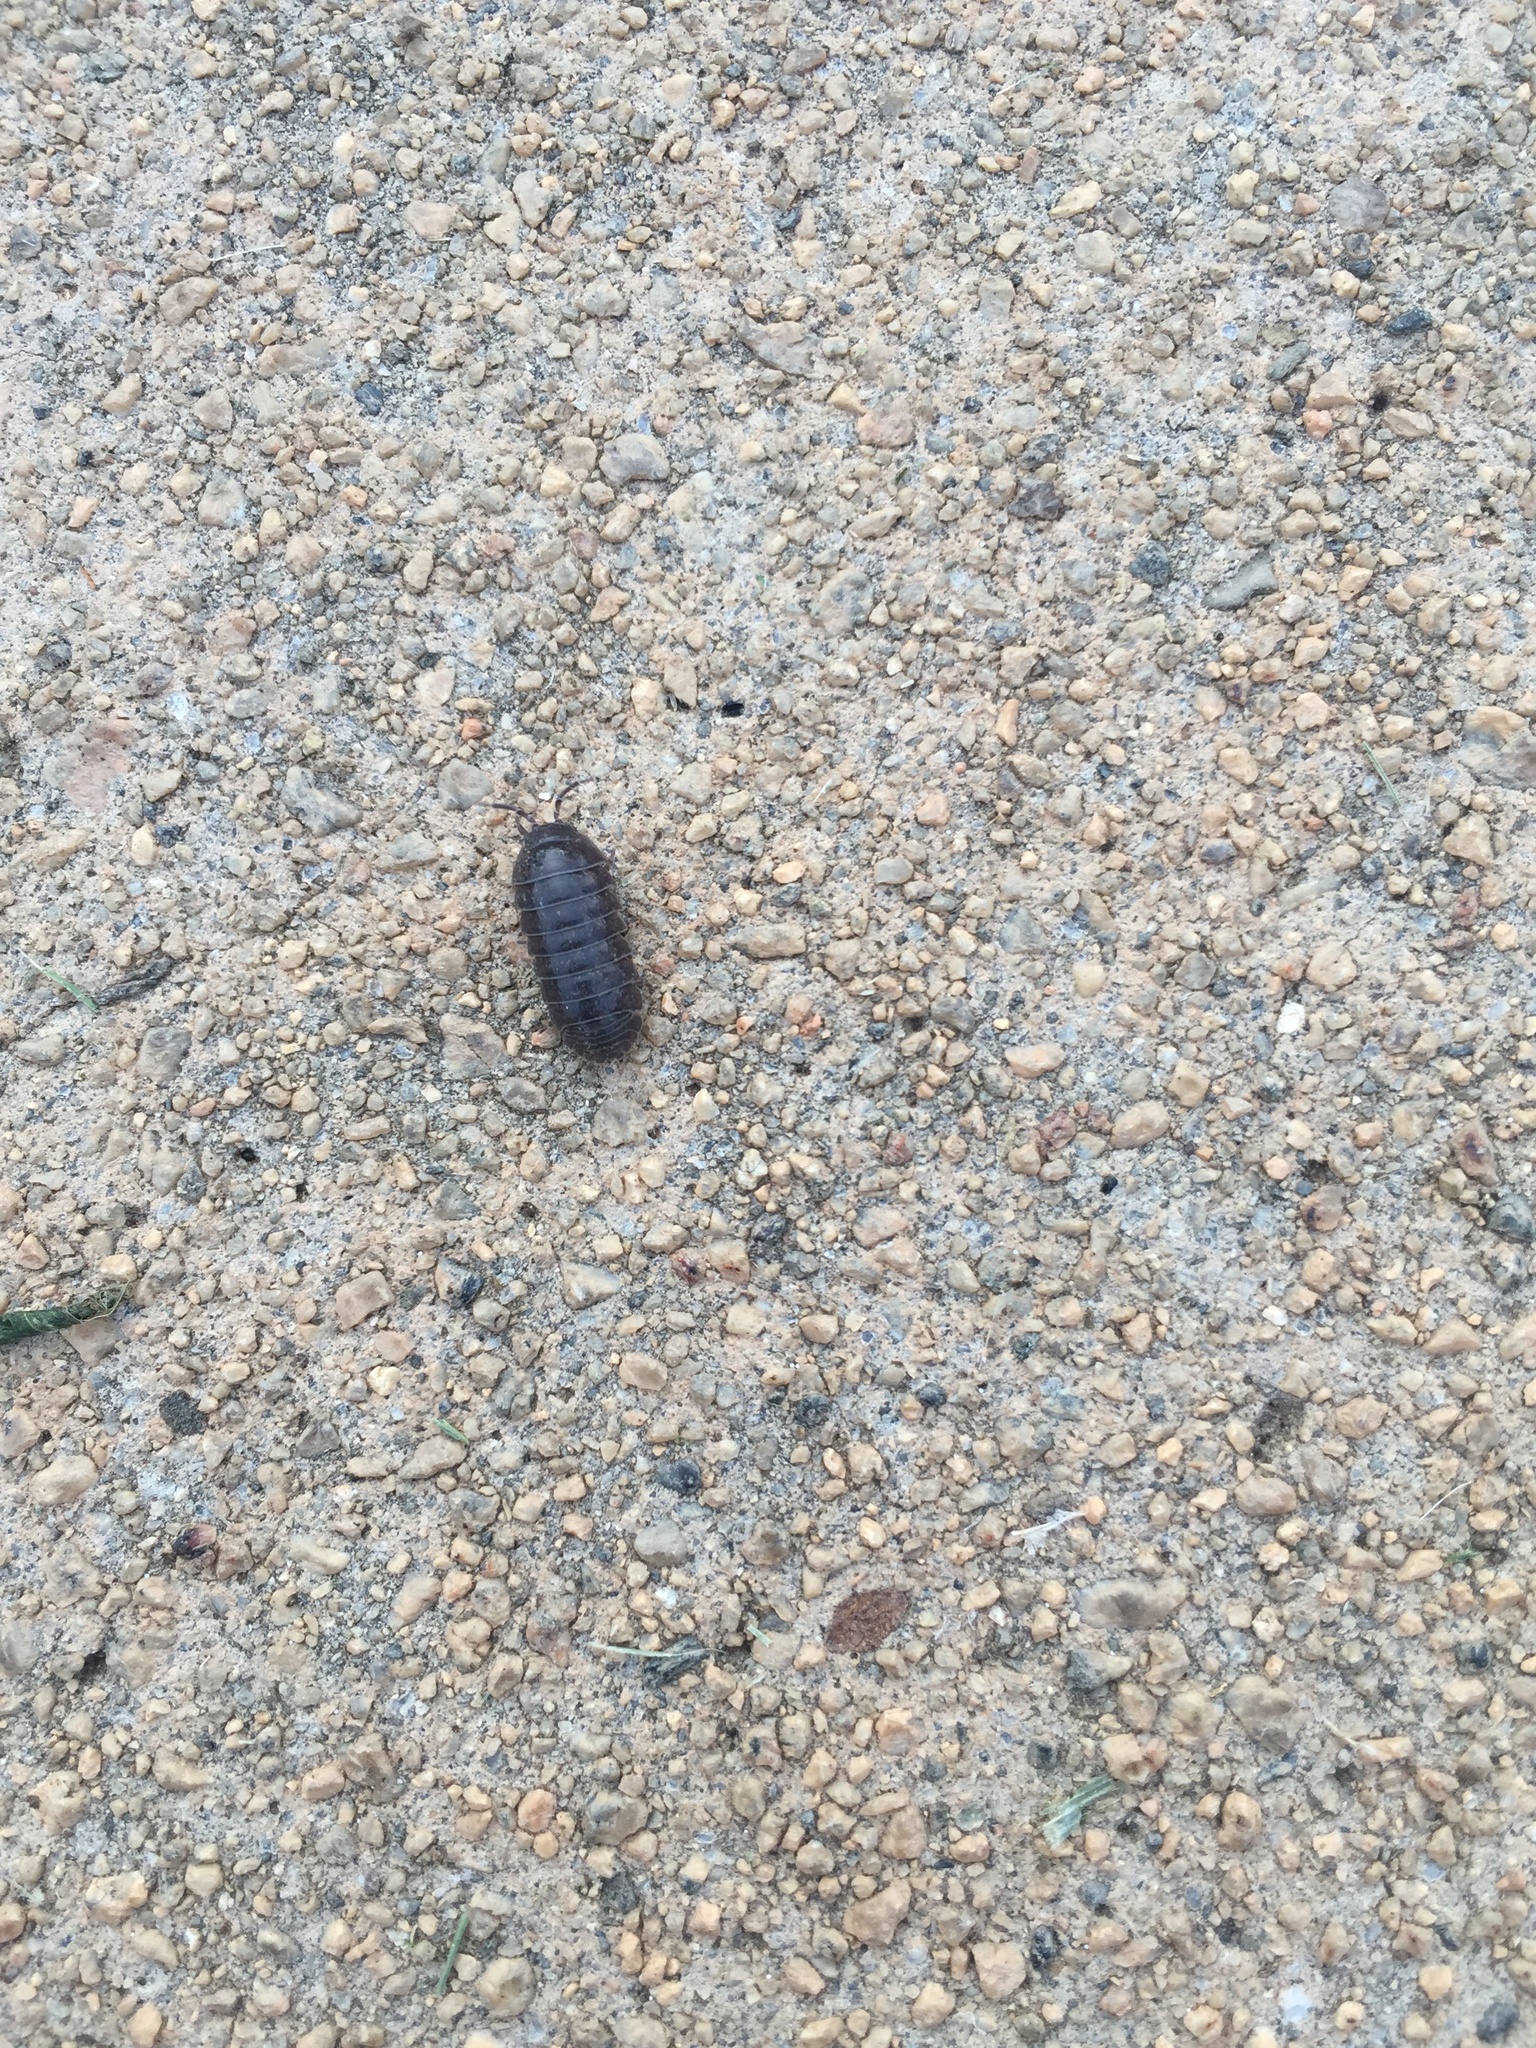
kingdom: Animalia
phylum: Arthropoda
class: Malacostraca
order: Isopoda
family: Armadillidiidae
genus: Armadillidium
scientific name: Armadillidium vulgare
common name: Common pill woodlouse
